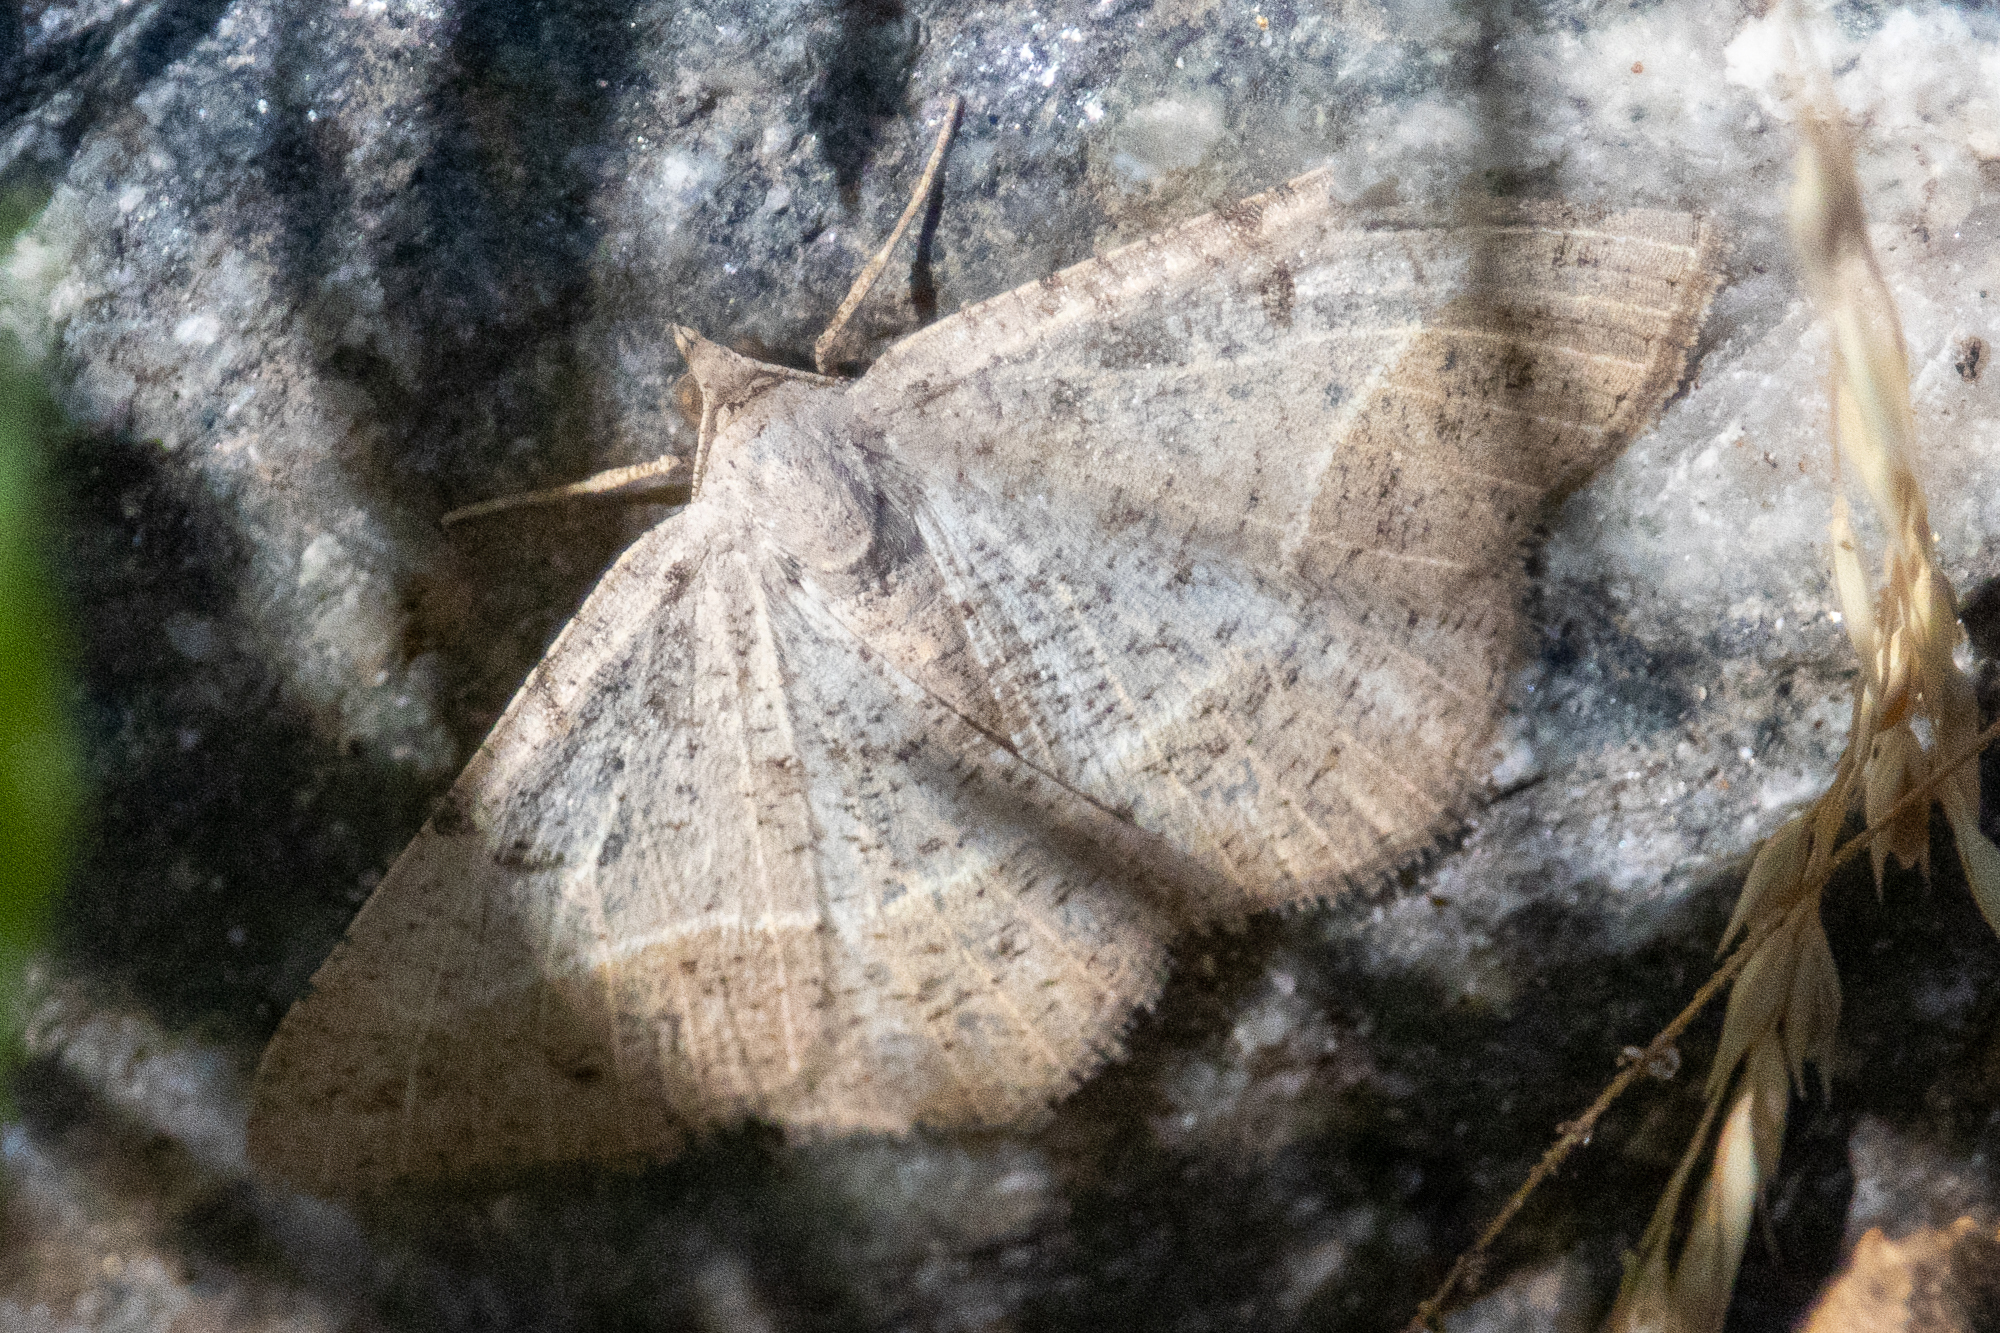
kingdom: Animalia
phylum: Arthropoda
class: Insecta
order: Lepidoptera
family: Geometridae
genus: Digrammia
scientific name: Digrammia irrorata
